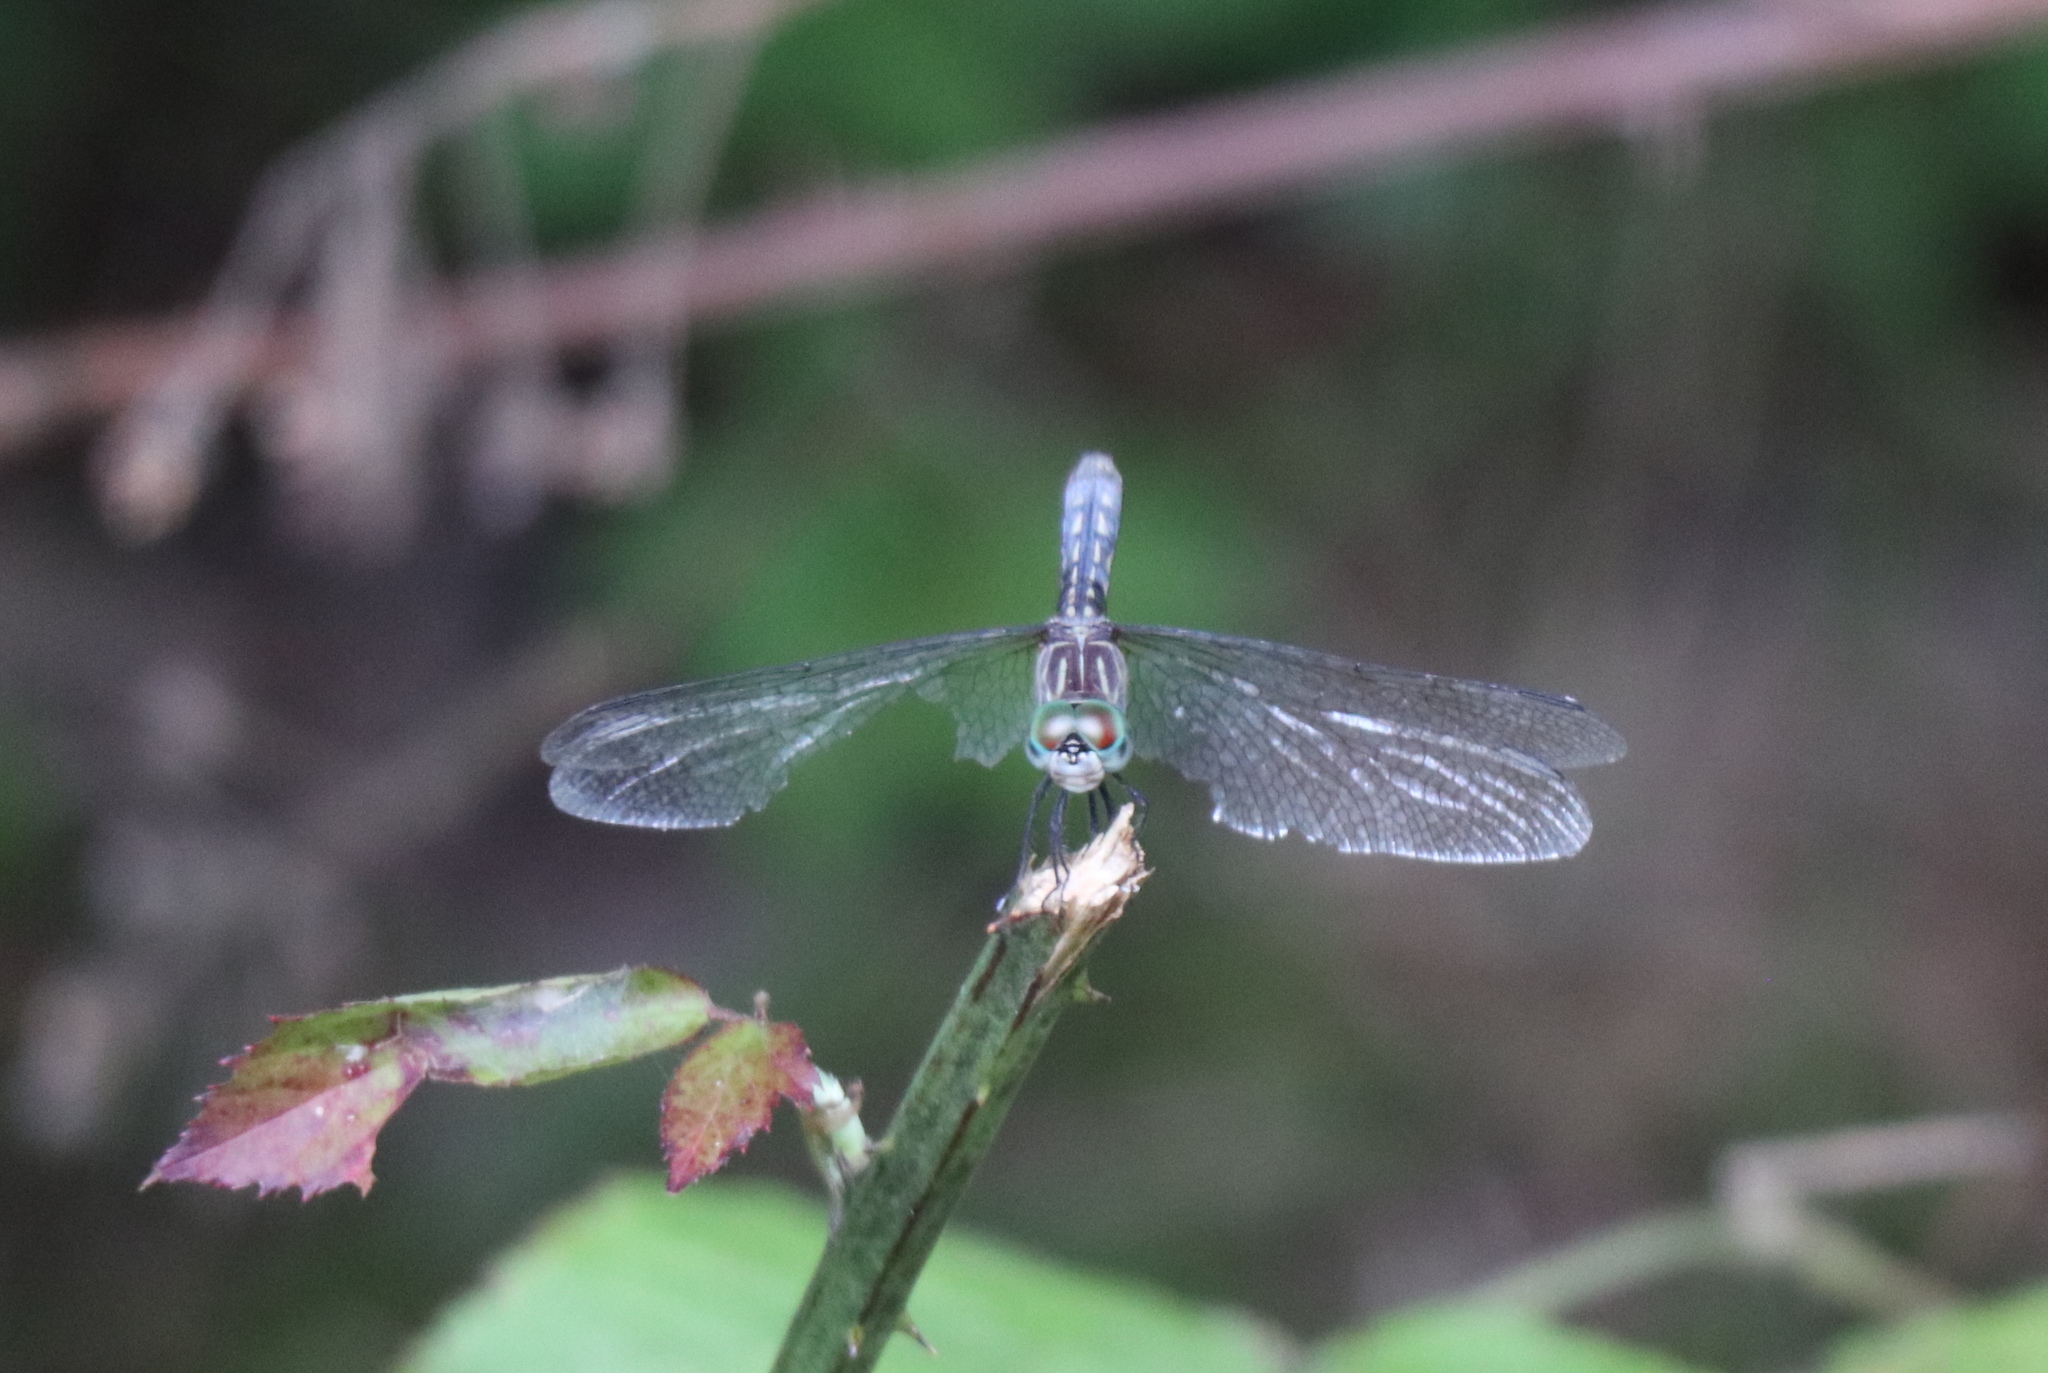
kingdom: Animalia
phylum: Arthropoda
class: Insecta
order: Odonata
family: Libellulidae
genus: Pachydiplax
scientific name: Pachydiplax longipennis
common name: Blue dasher
